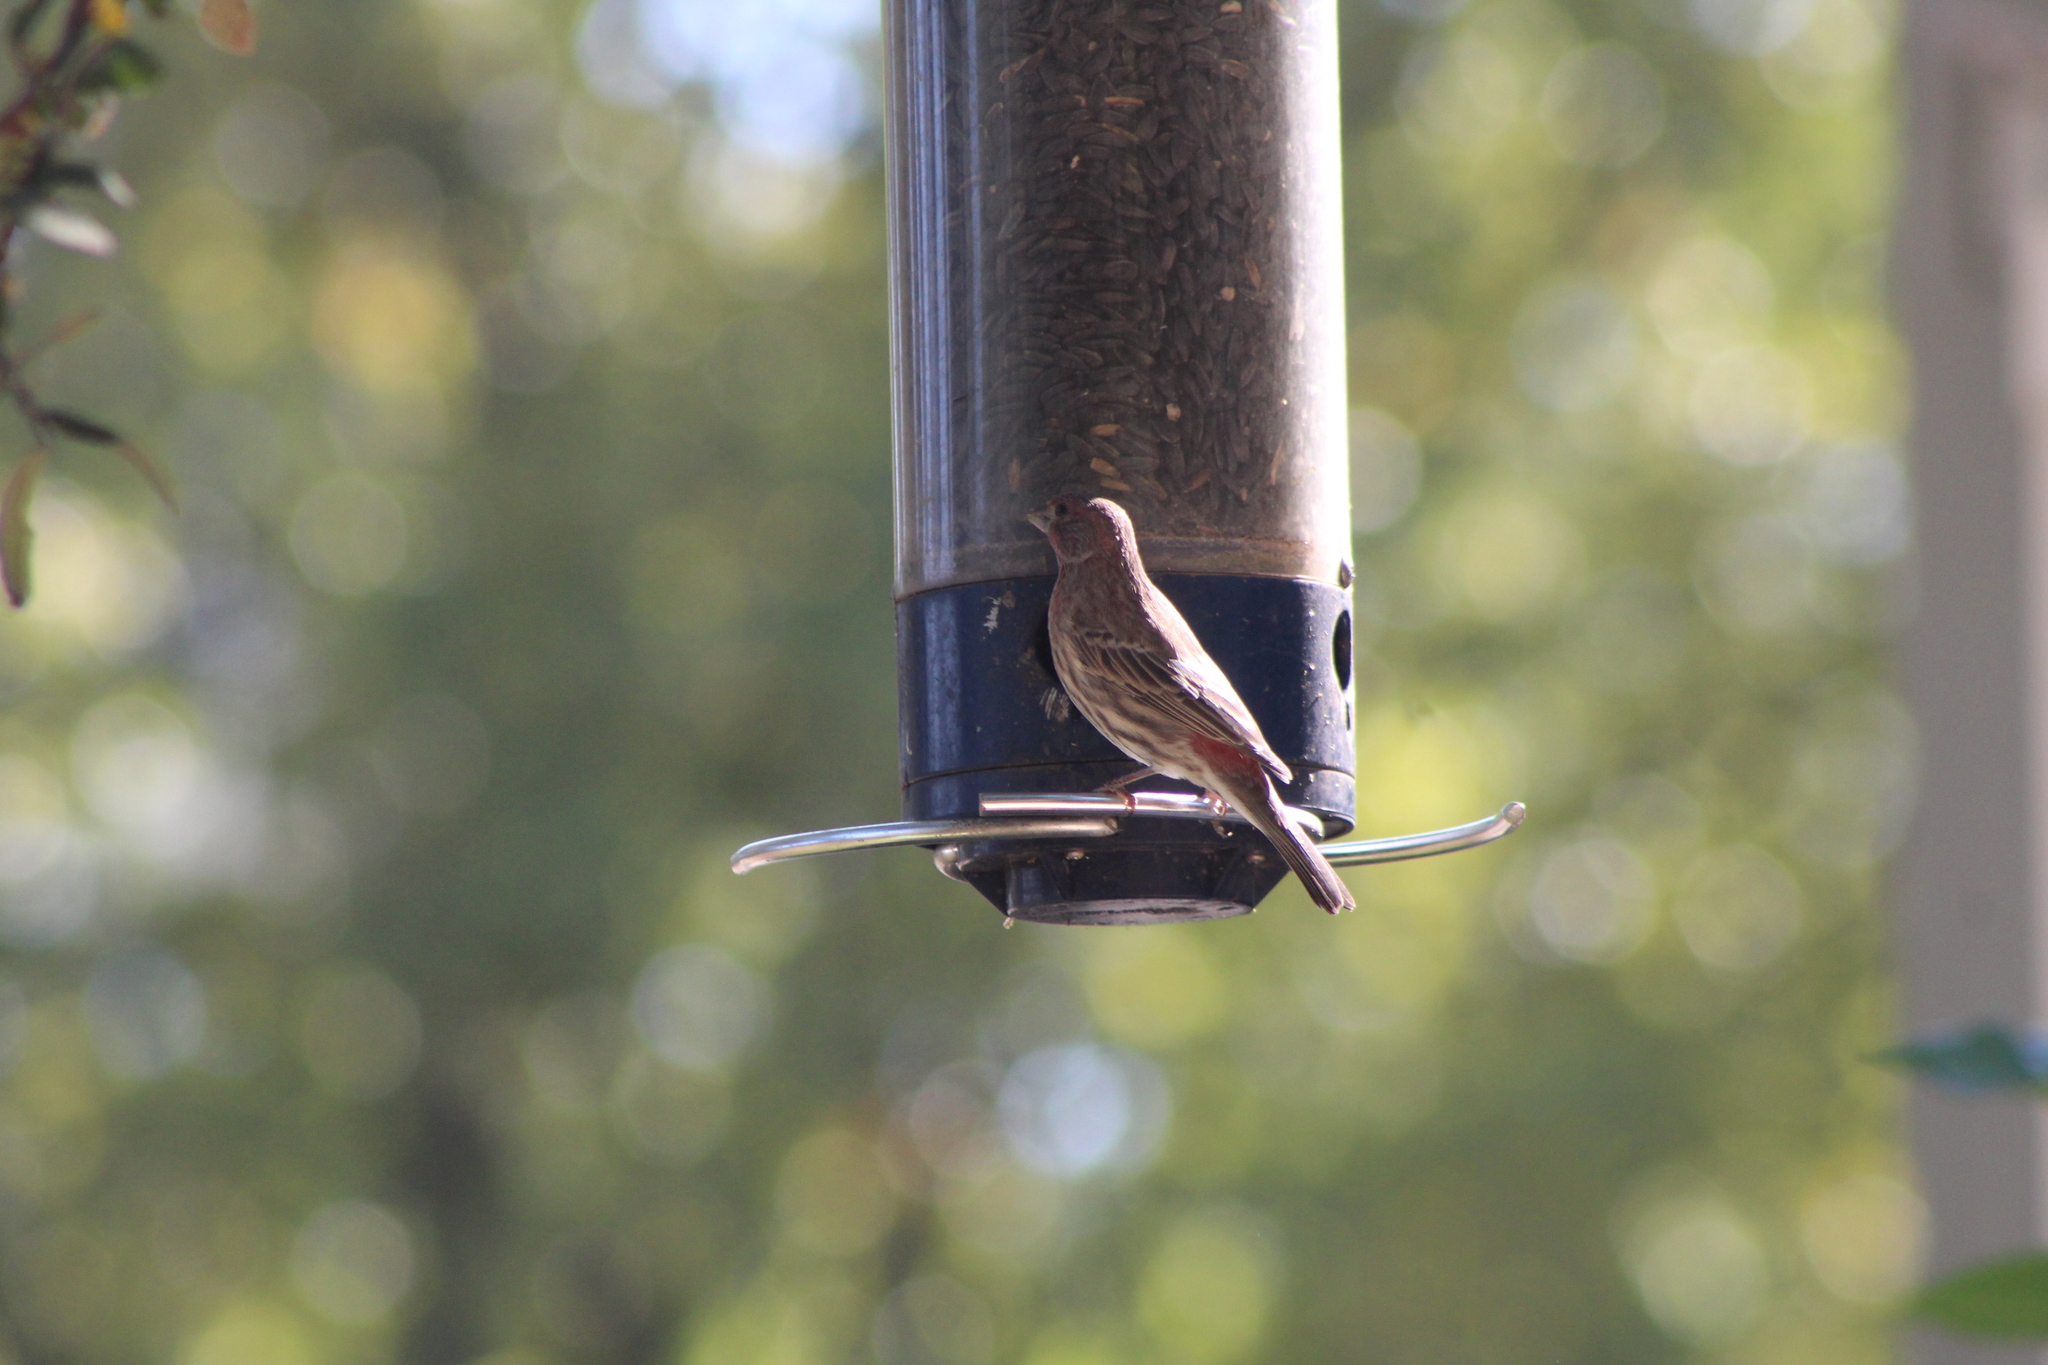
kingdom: Animalia
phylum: Chordata
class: Aves
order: Passeriformes
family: Fringillidae
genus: Haemorhous
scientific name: Haemorhous mexicanus
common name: House finch
